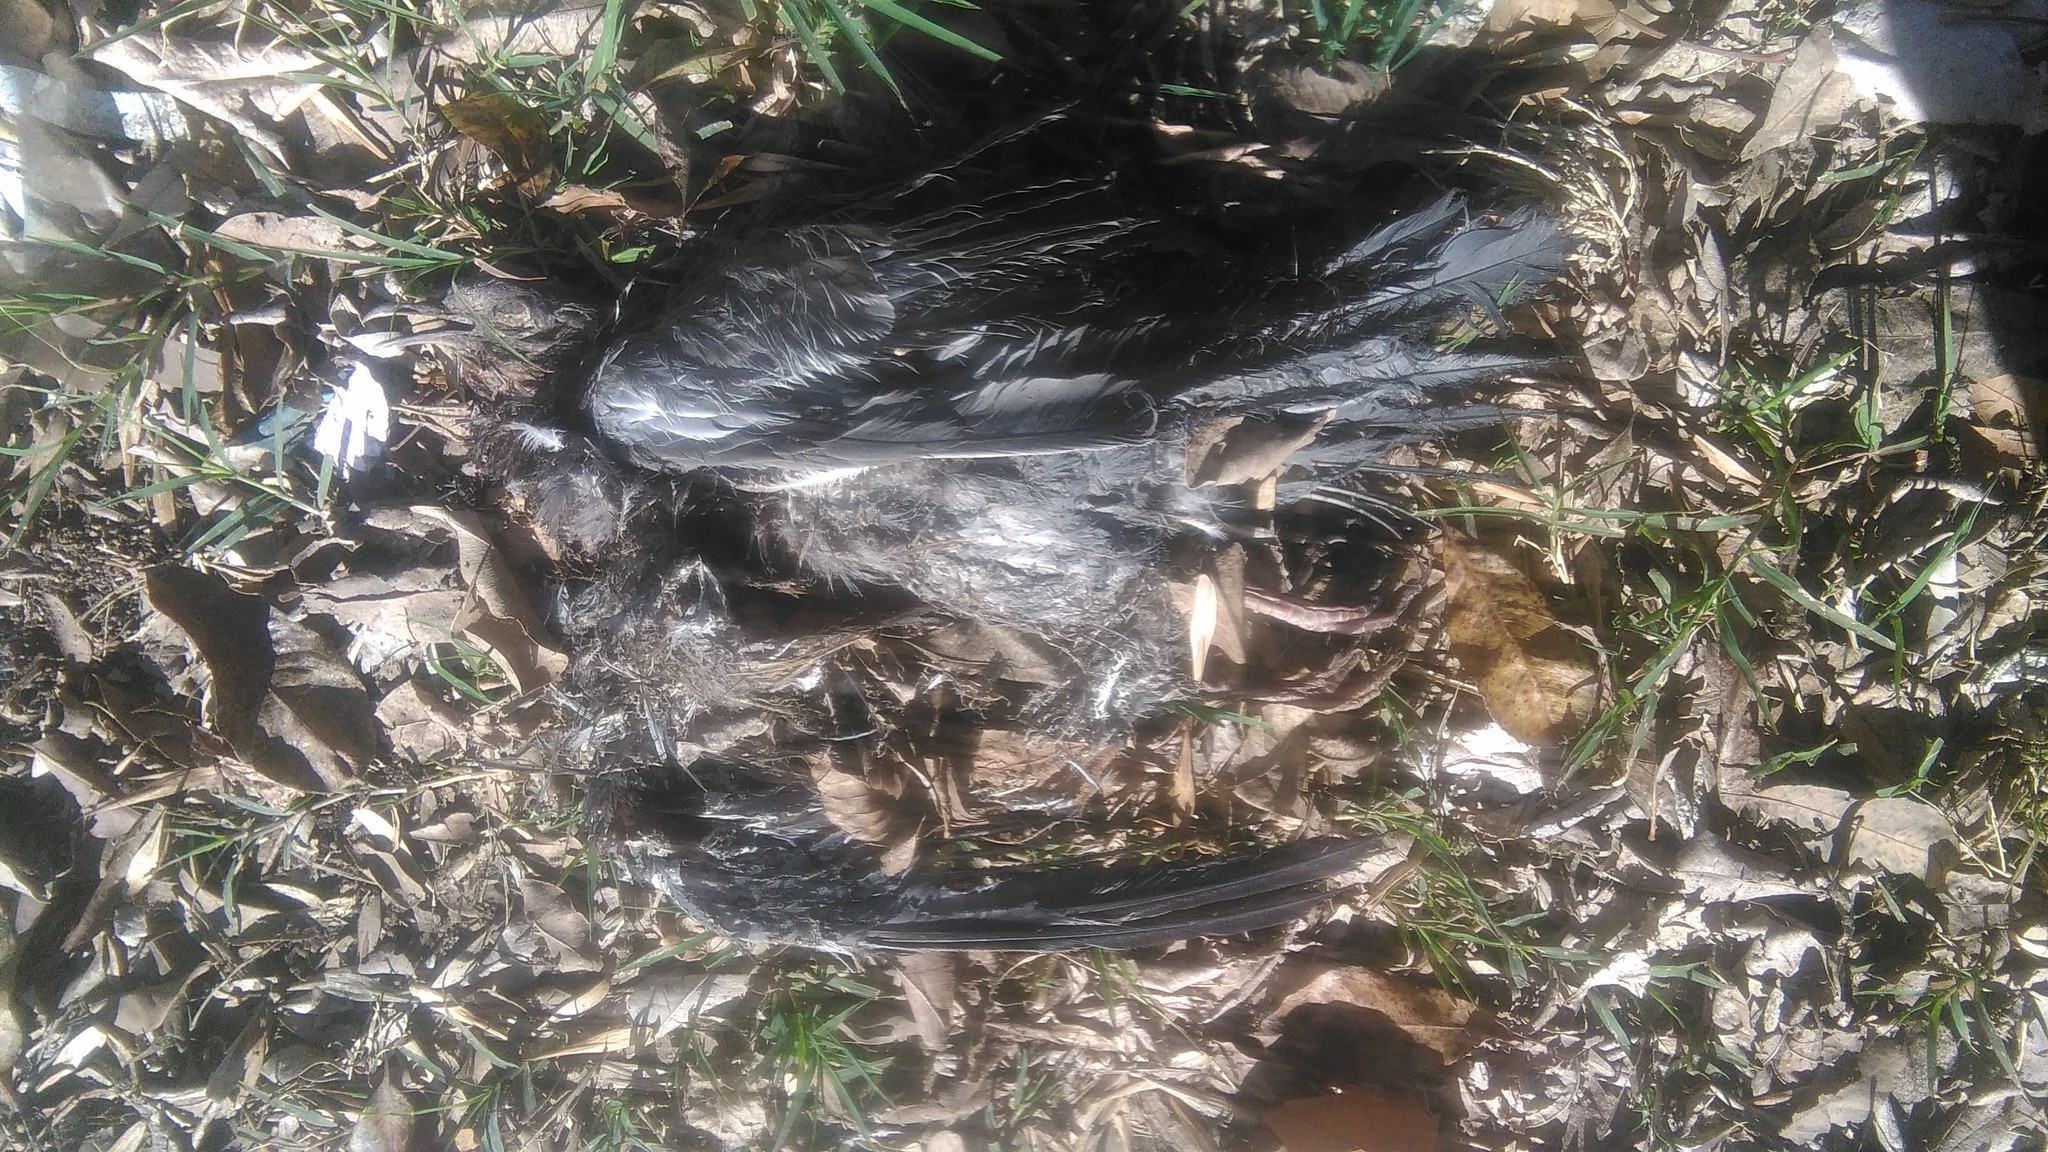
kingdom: Animalia
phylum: Chordata
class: Aves
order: Columbiformes
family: Columbidae
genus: Columba
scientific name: Columba livia
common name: Rock pigeon
